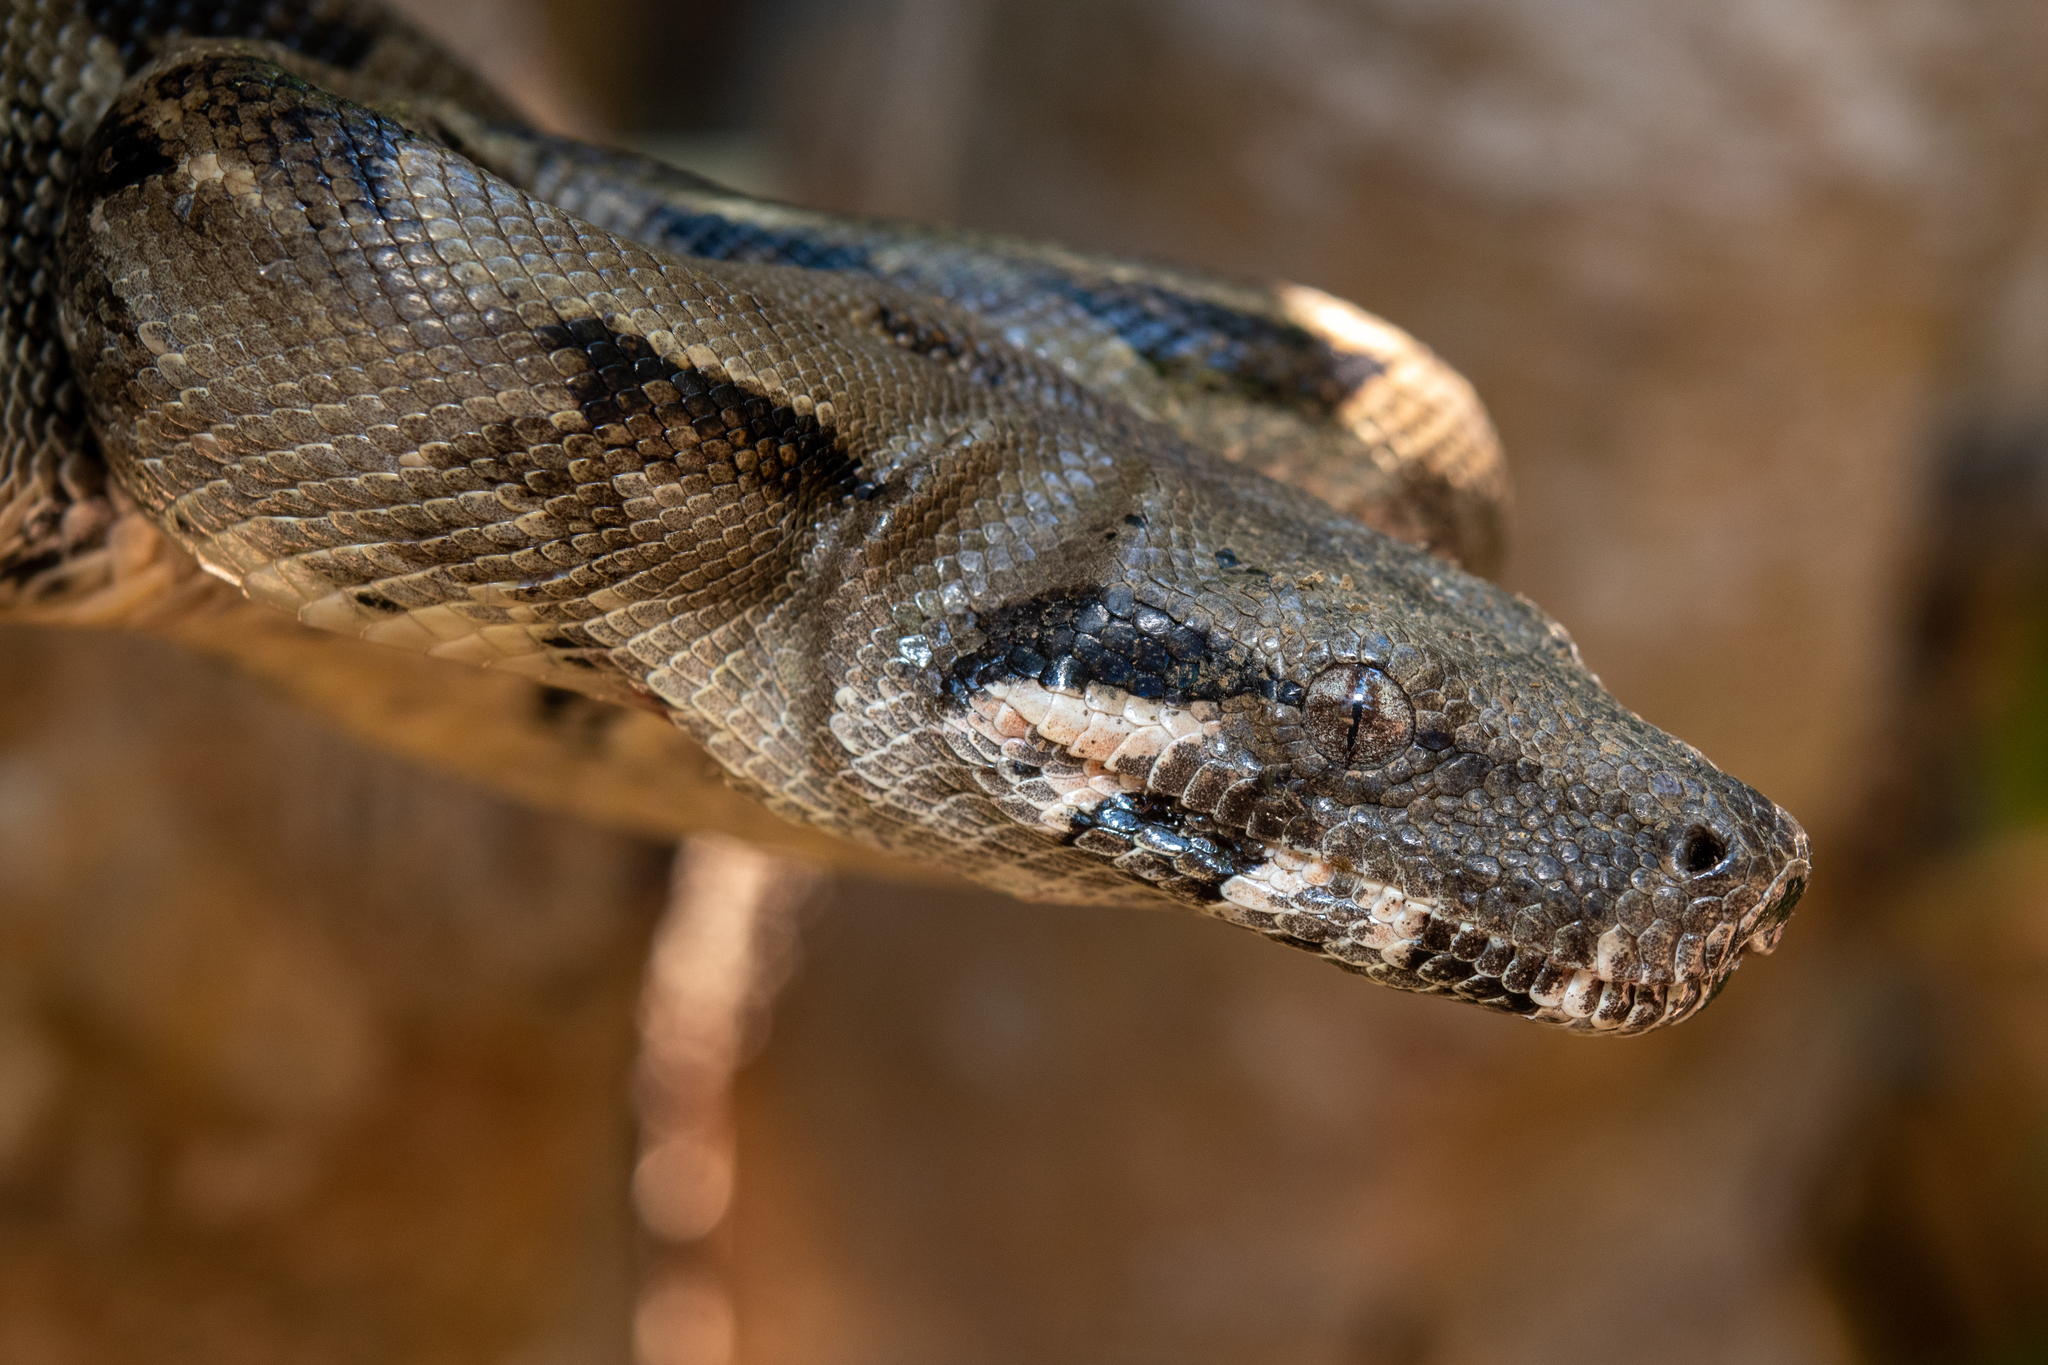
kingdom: Animalia
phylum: Chordata
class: Squamata
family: Boidae
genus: Boa
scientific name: Boa imperator
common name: Central american boa
